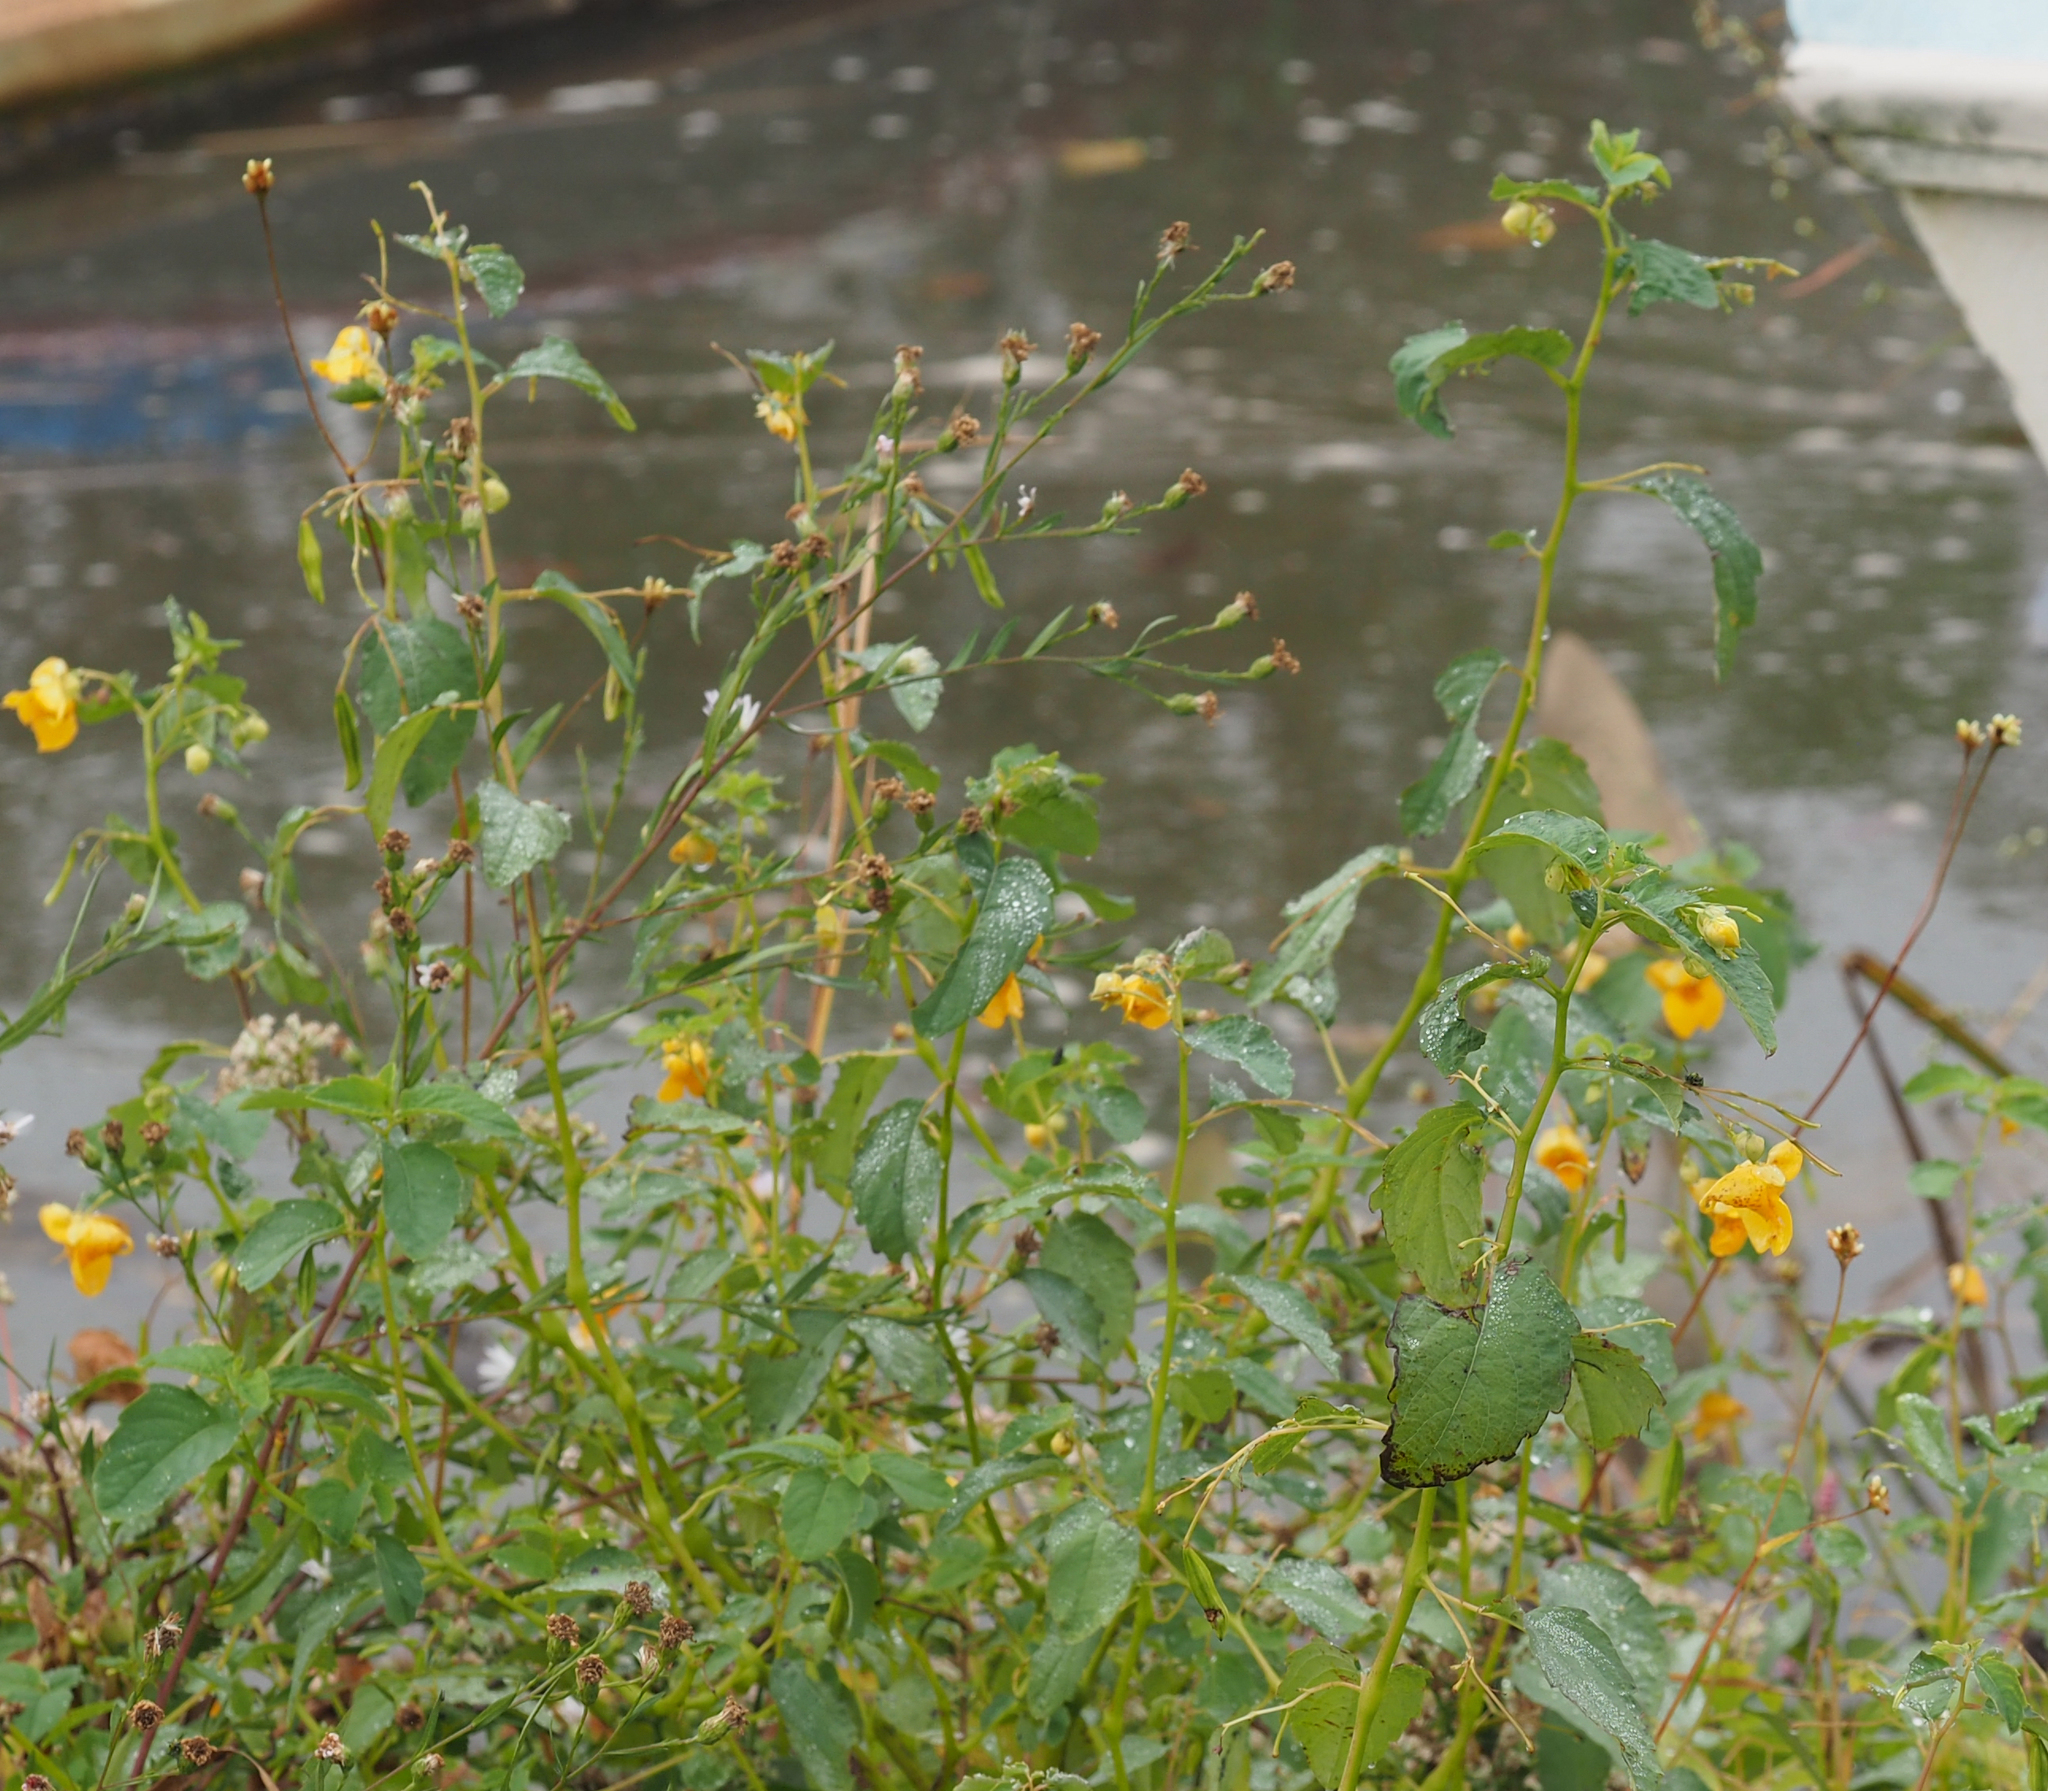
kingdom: Plantae
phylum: Tracheophyta
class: Magnoliopsida
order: Ericales
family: Balsaminaceae
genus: Impatiens
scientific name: Impatiens capensis
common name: Orange balsam
